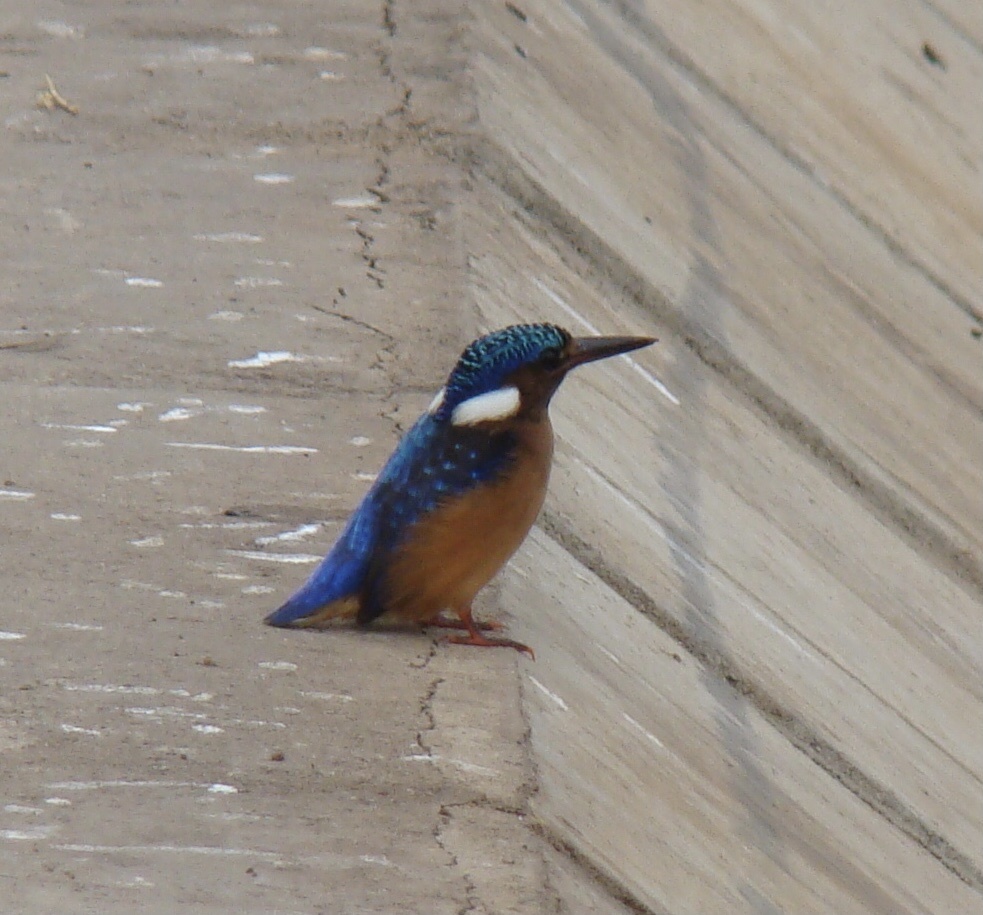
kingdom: Animalia
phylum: Chordata
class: Aves
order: Coraciiformes
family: Alcedinidae
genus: Corythornis
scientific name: Corythornis cristatus
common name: Malachite kingfisher
